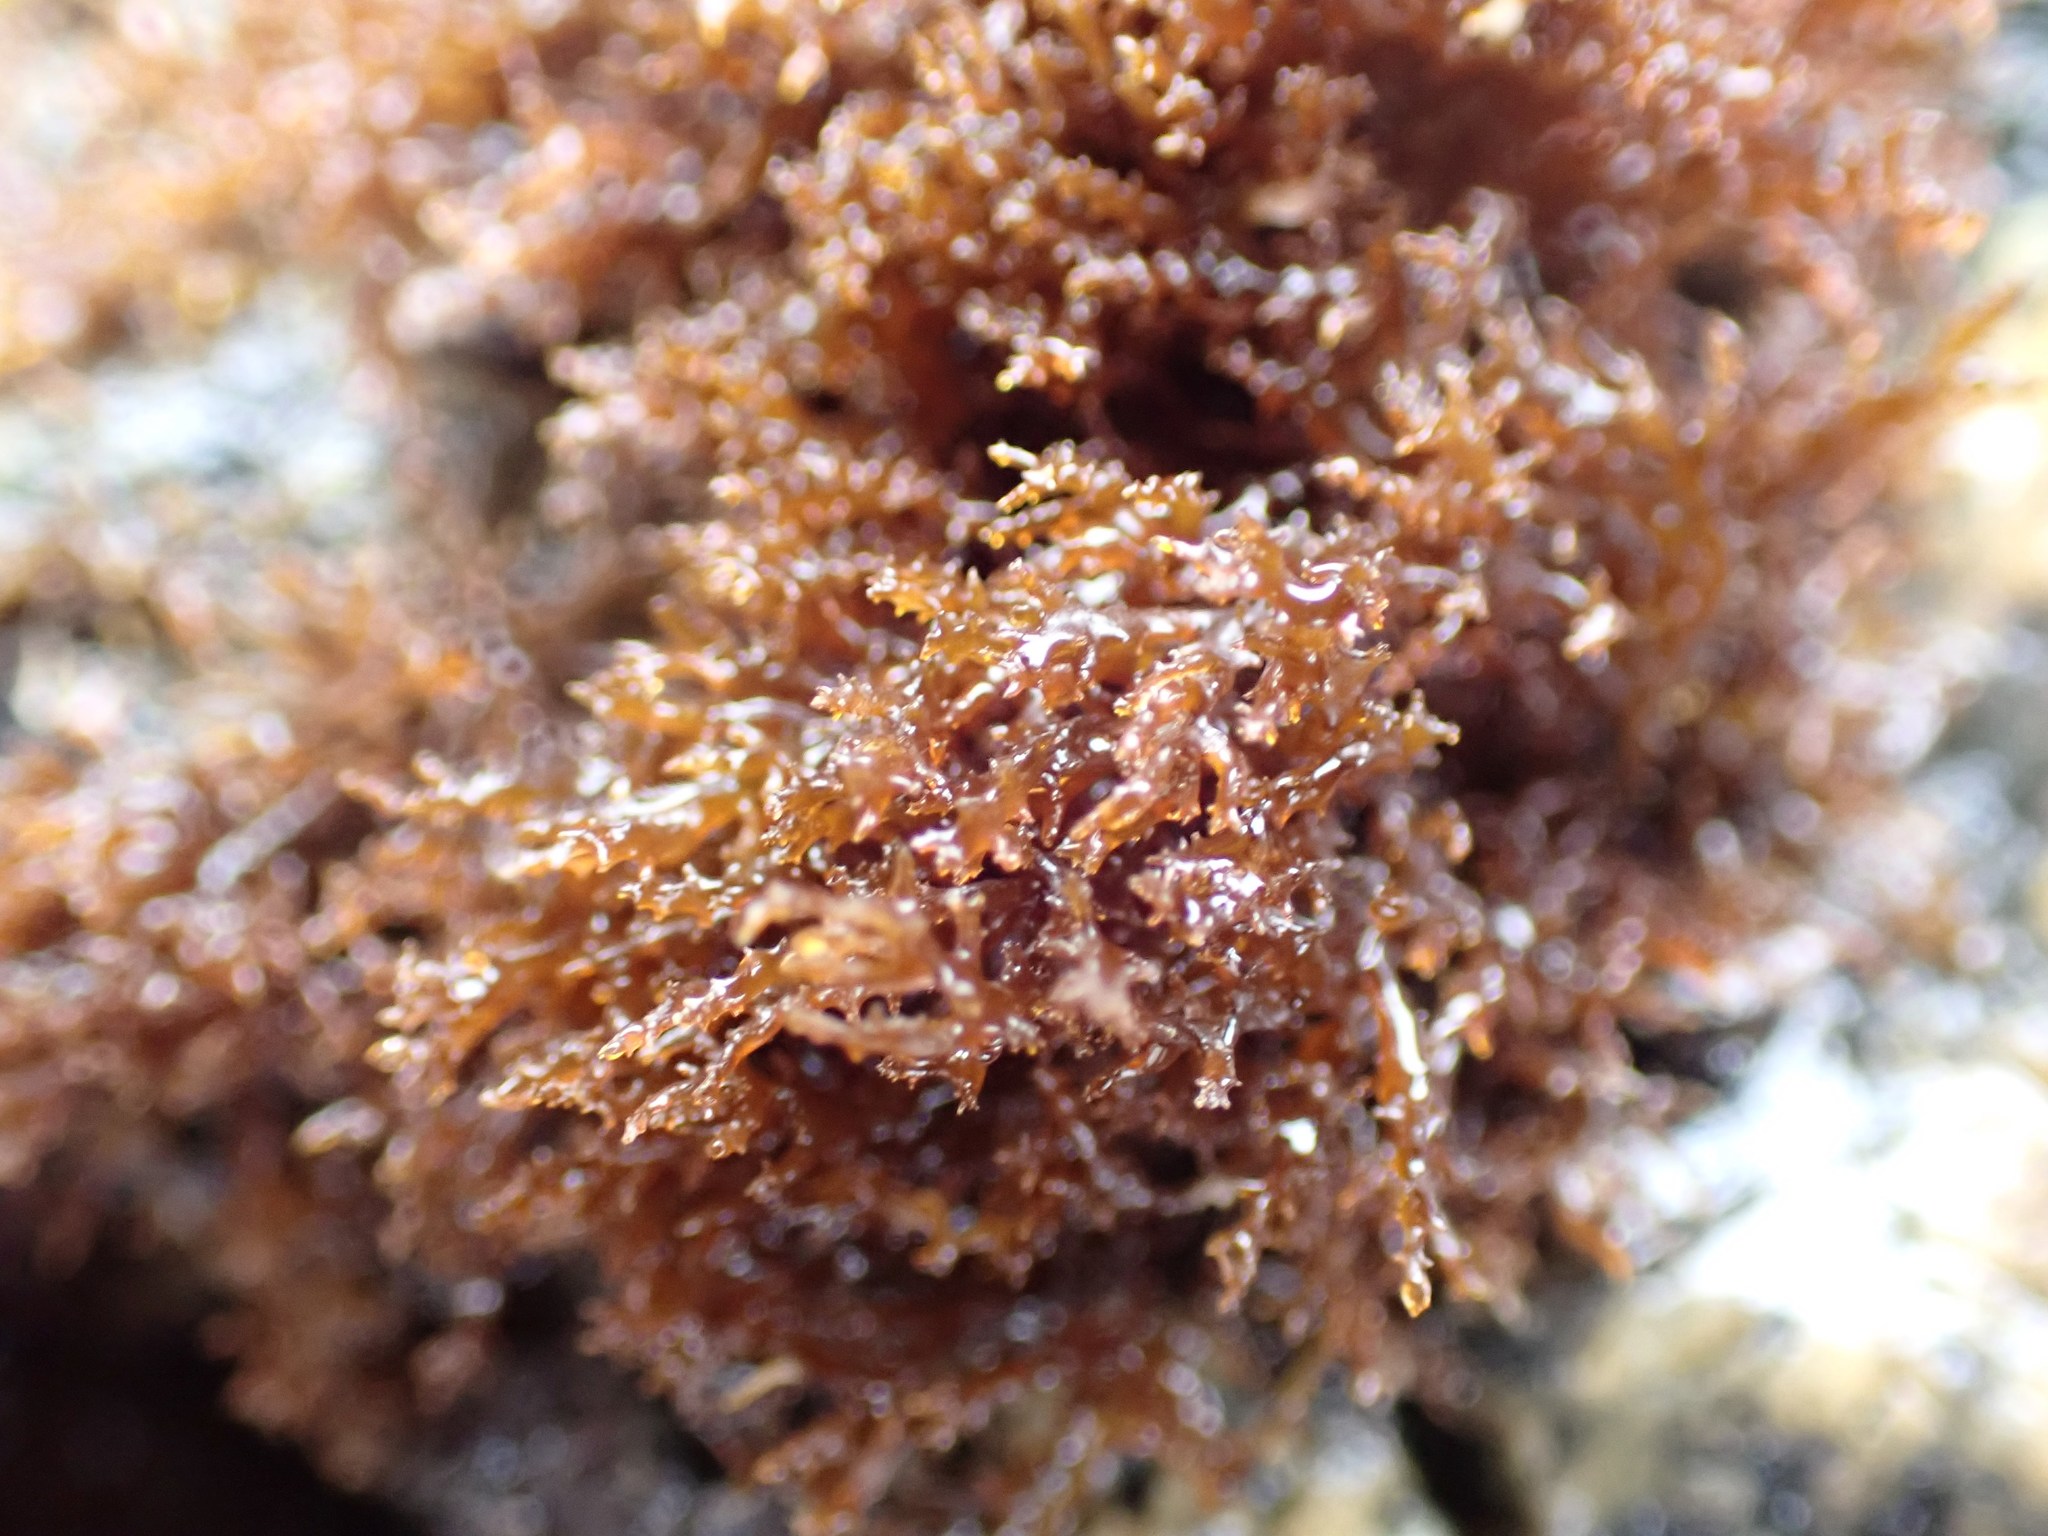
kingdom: Plantae
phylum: Rhodophyta
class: Florideophyceae
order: Gigartinales
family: Endocladiaceae
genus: Endocladia
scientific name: Endocladia muricata
